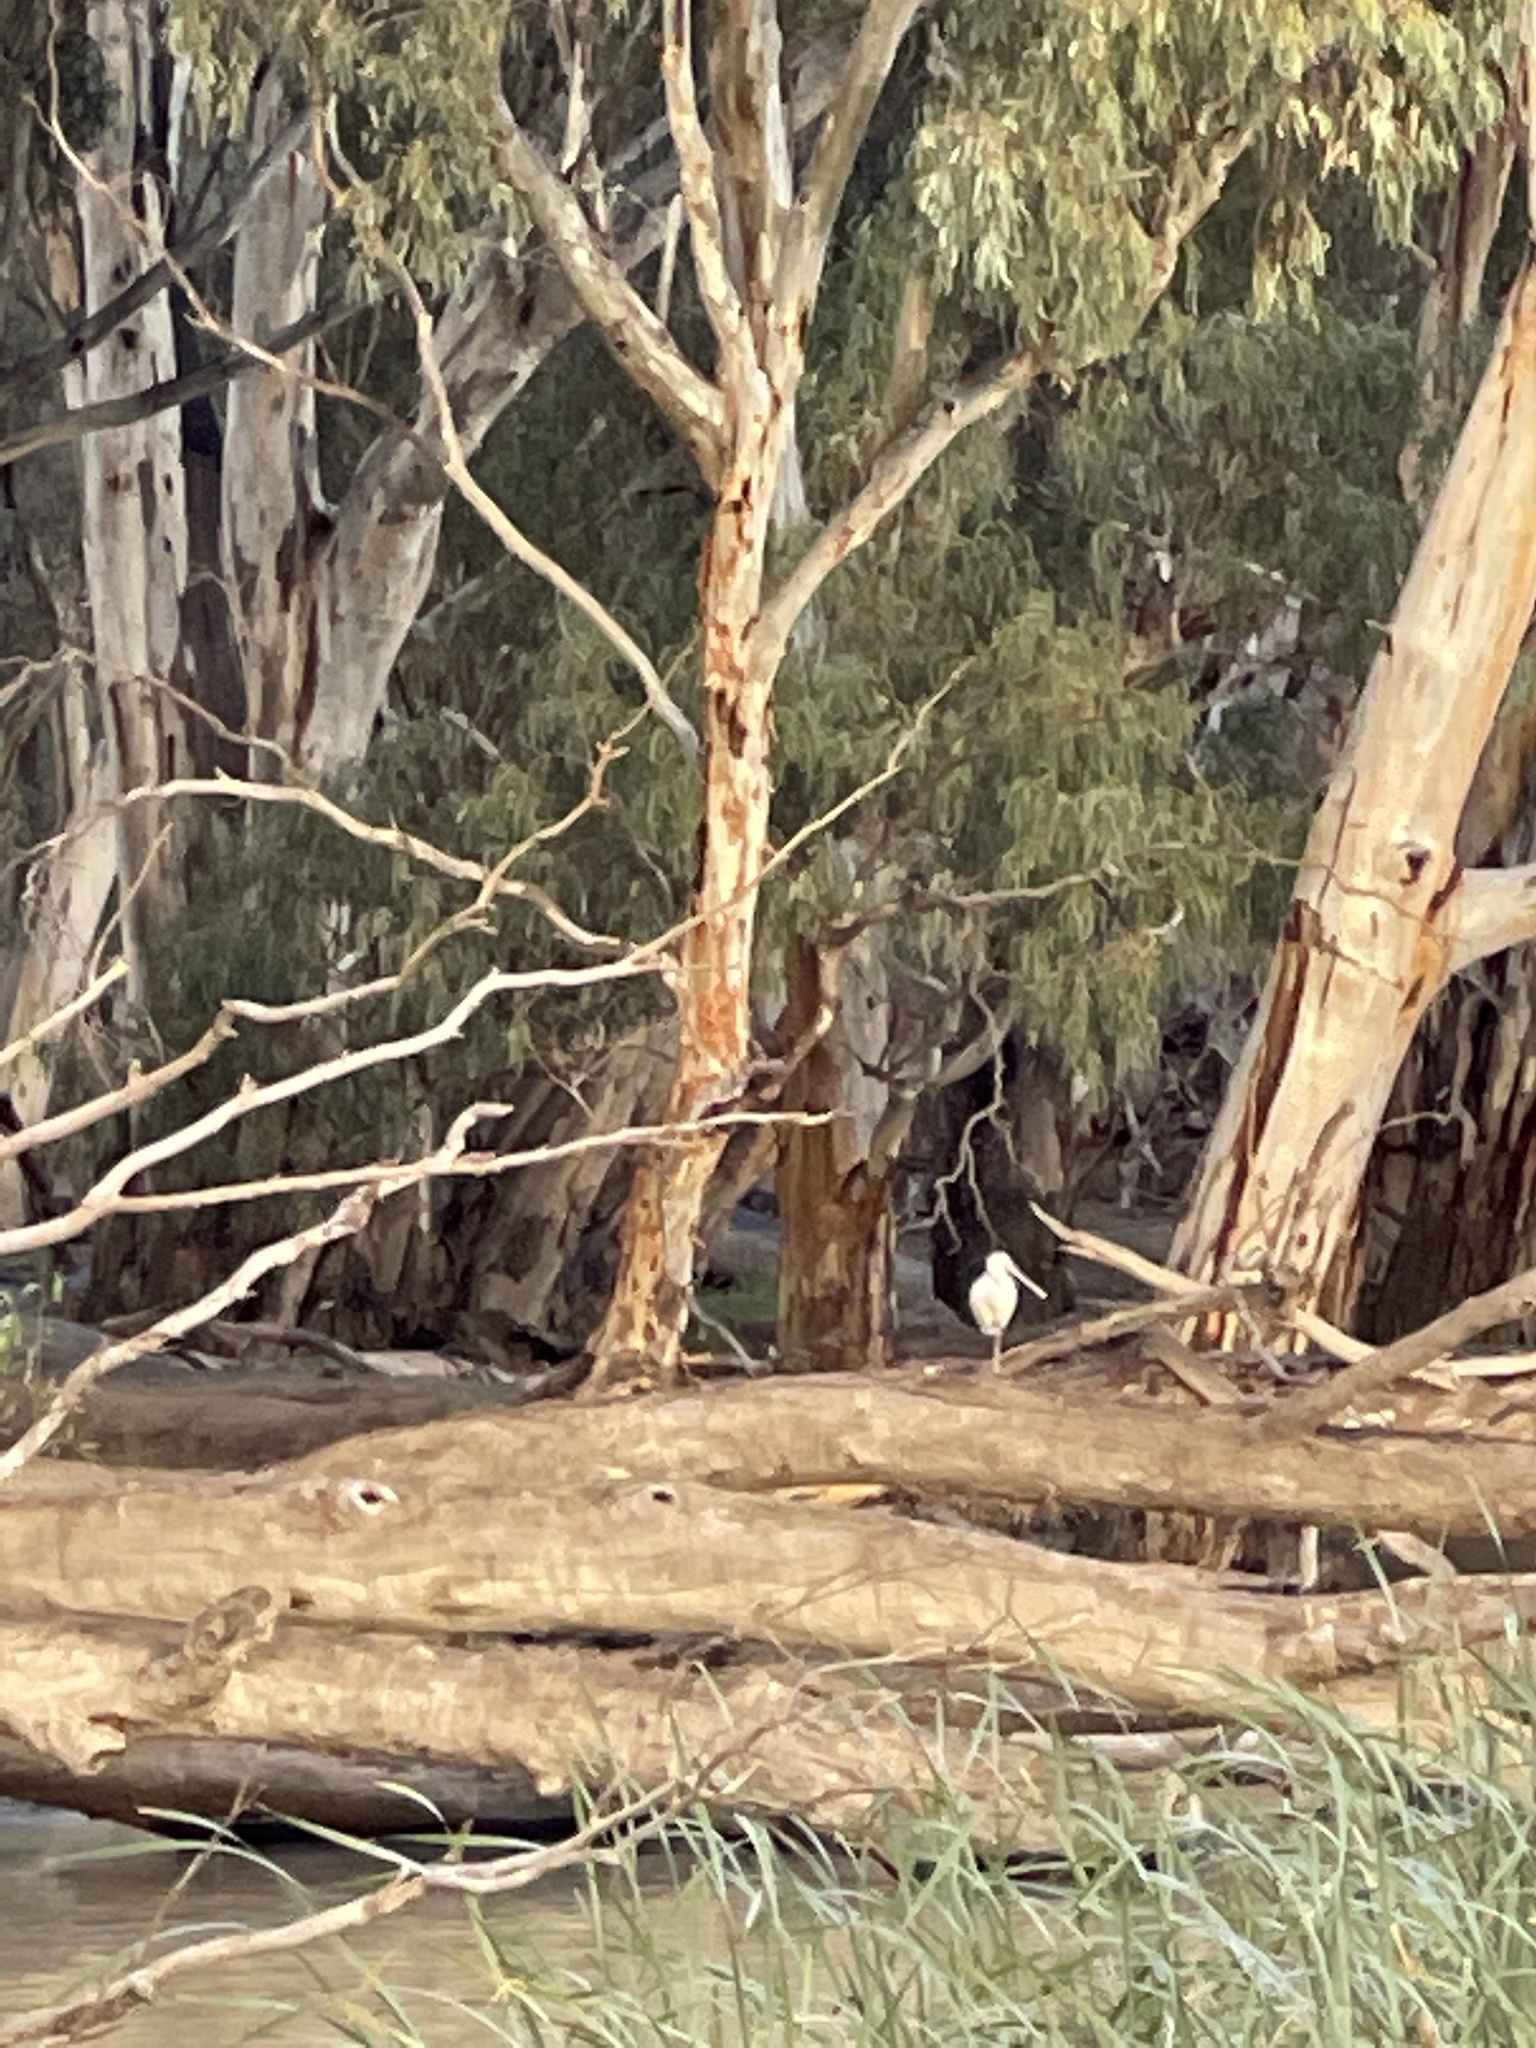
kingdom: Animalia
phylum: Chordata
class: Aves
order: Pelecaniformes
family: Threskiornithidae
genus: Platalea
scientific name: Platalea flavipes
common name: Yellow-billed spoonbill
